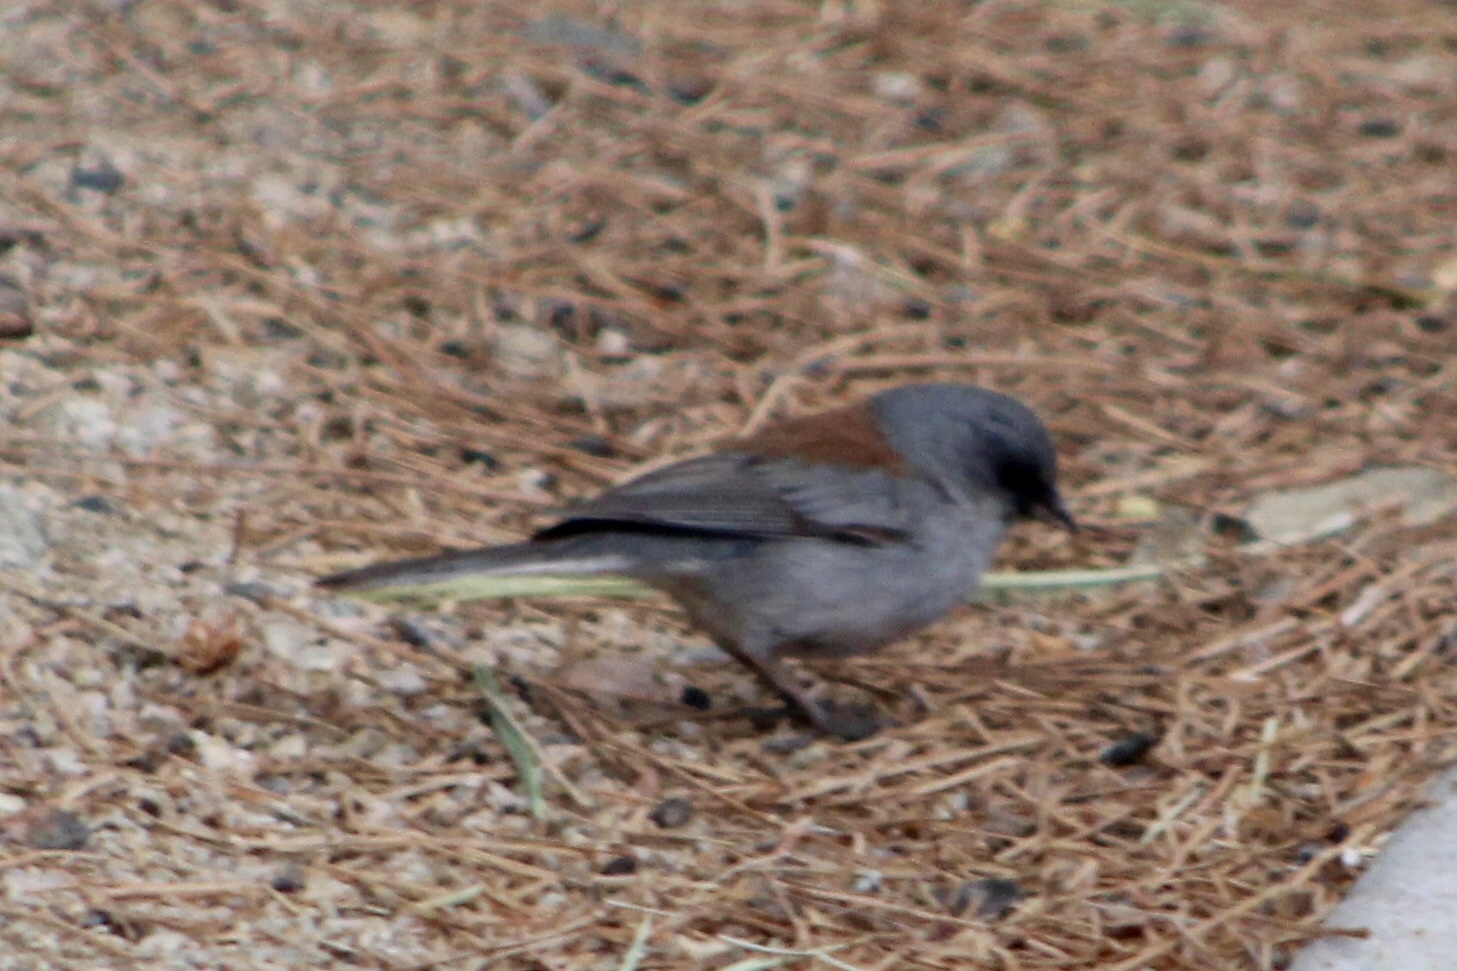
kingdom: Animalia
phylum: Chordata
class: Aves
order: Passeriformes
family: Passerellidae
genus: Junco
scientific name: Junco hyemalis
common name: Dark-eyed junco
